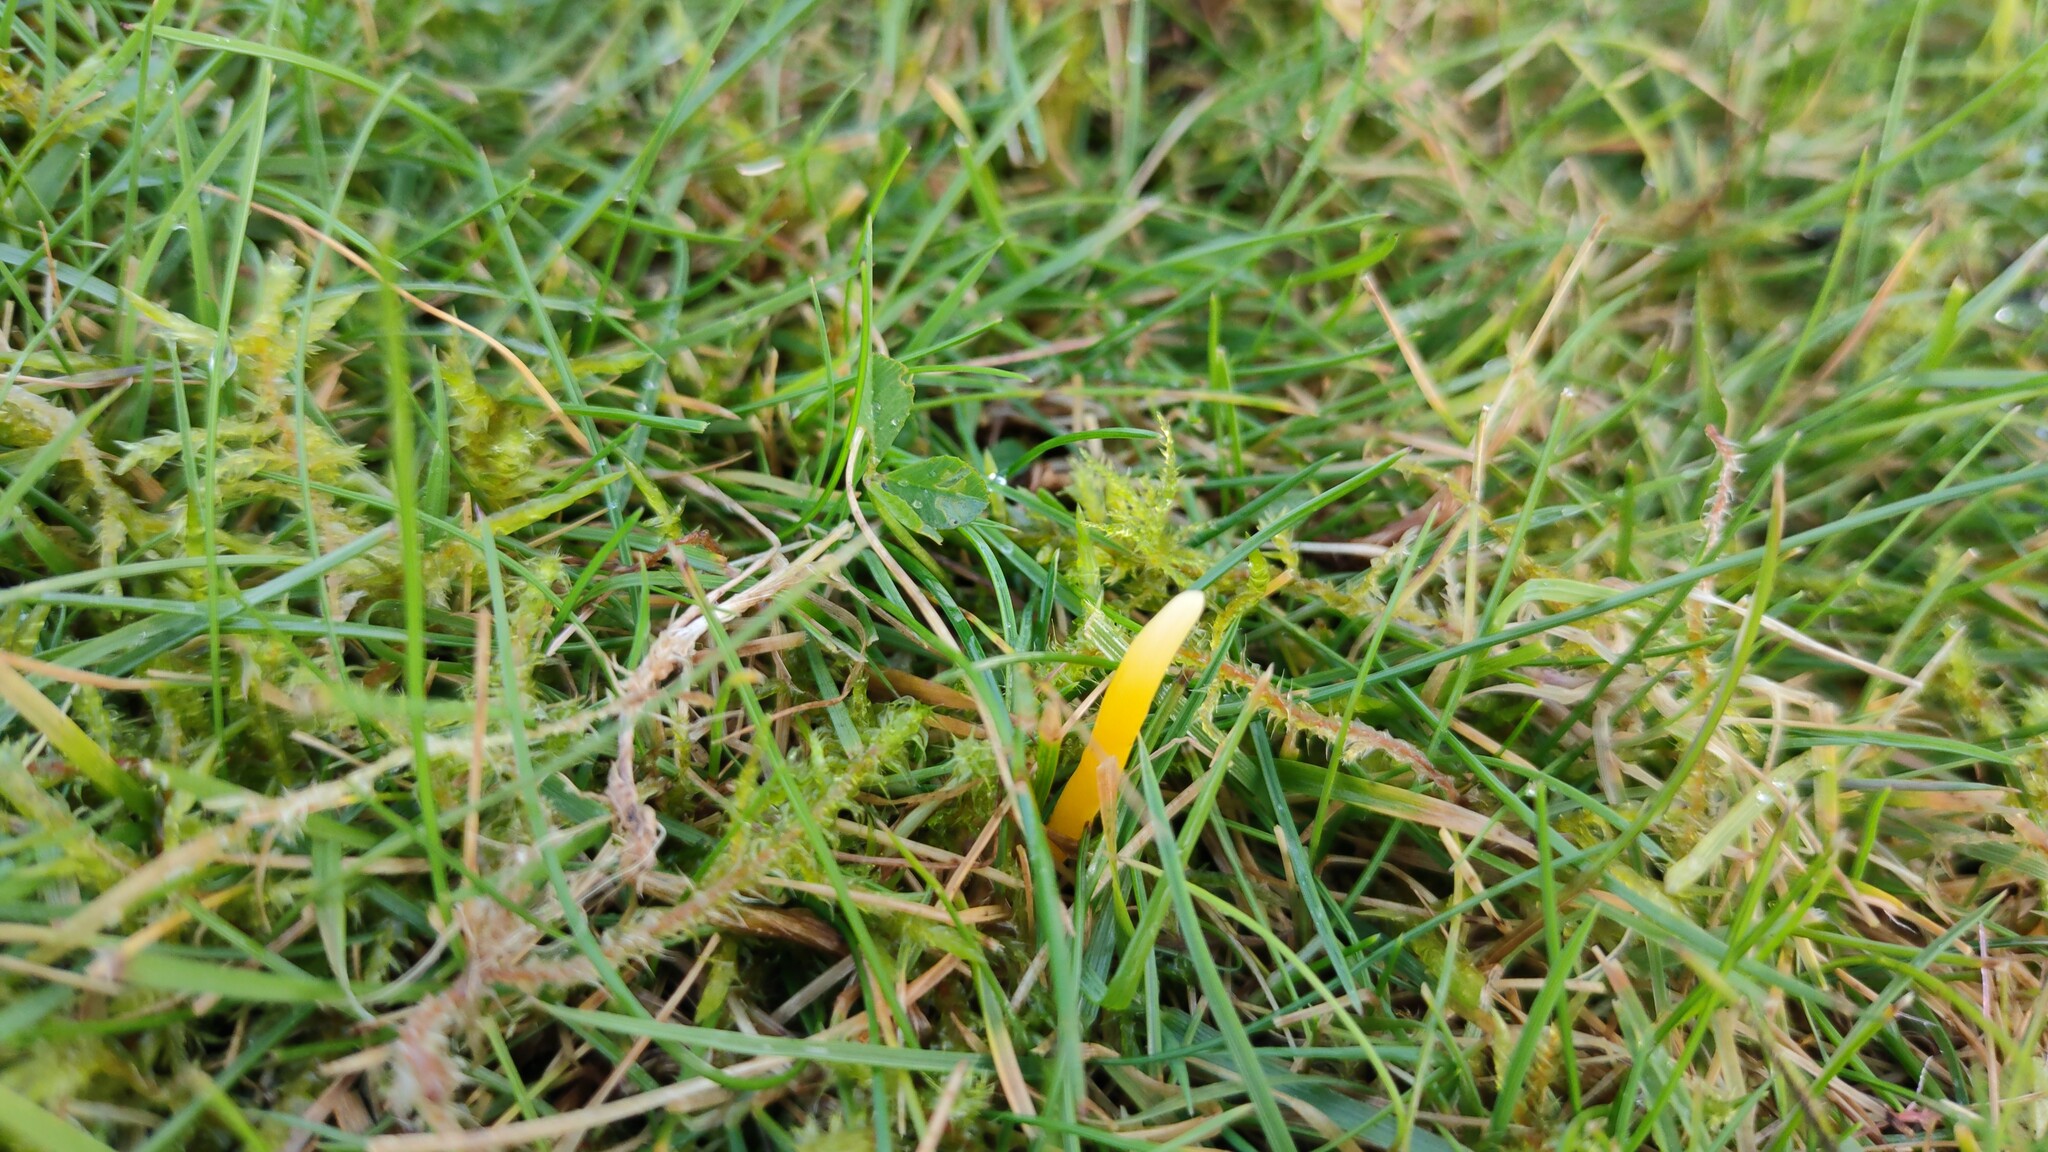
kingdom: Fungi
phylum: Basidiomycota
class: Agaricomycetes
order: Agaricales
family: Clavariaceae
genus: Clavulinopsis
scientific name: Clavulinopsis helvola
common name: Yellow club
